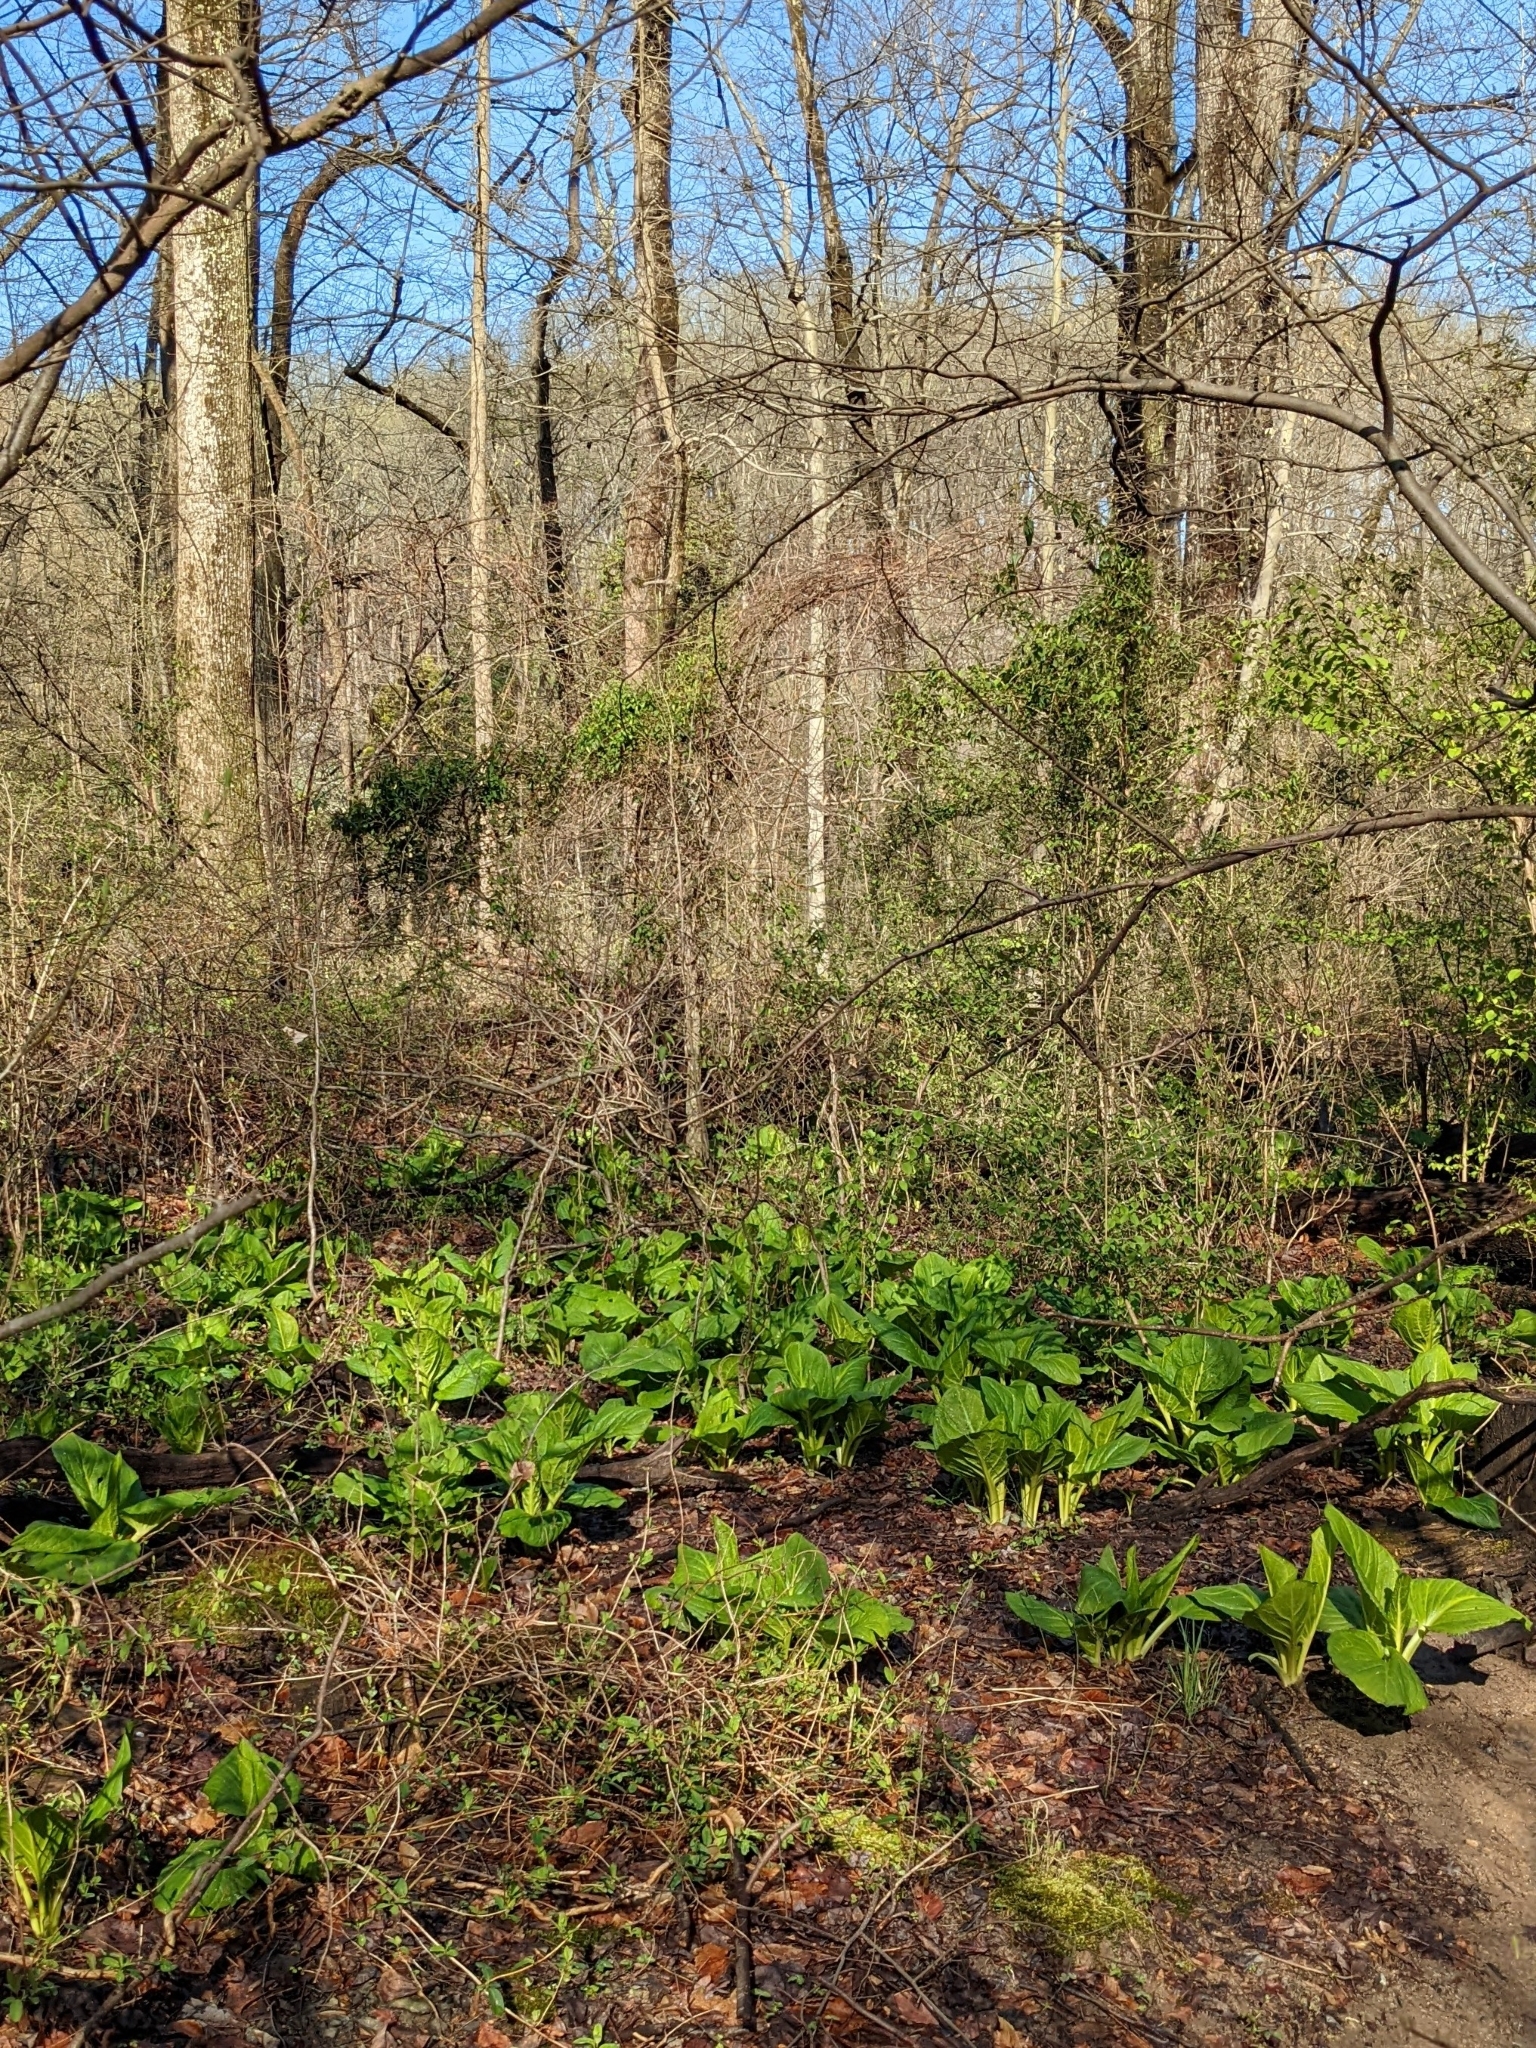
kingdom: Plantae
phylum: Tracheophyta
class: Liliopsida
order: Alismatales
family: Araceae
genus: Symplocarpus
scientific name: Symplocarpus foetidus
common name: Eastern skunk cabbage
